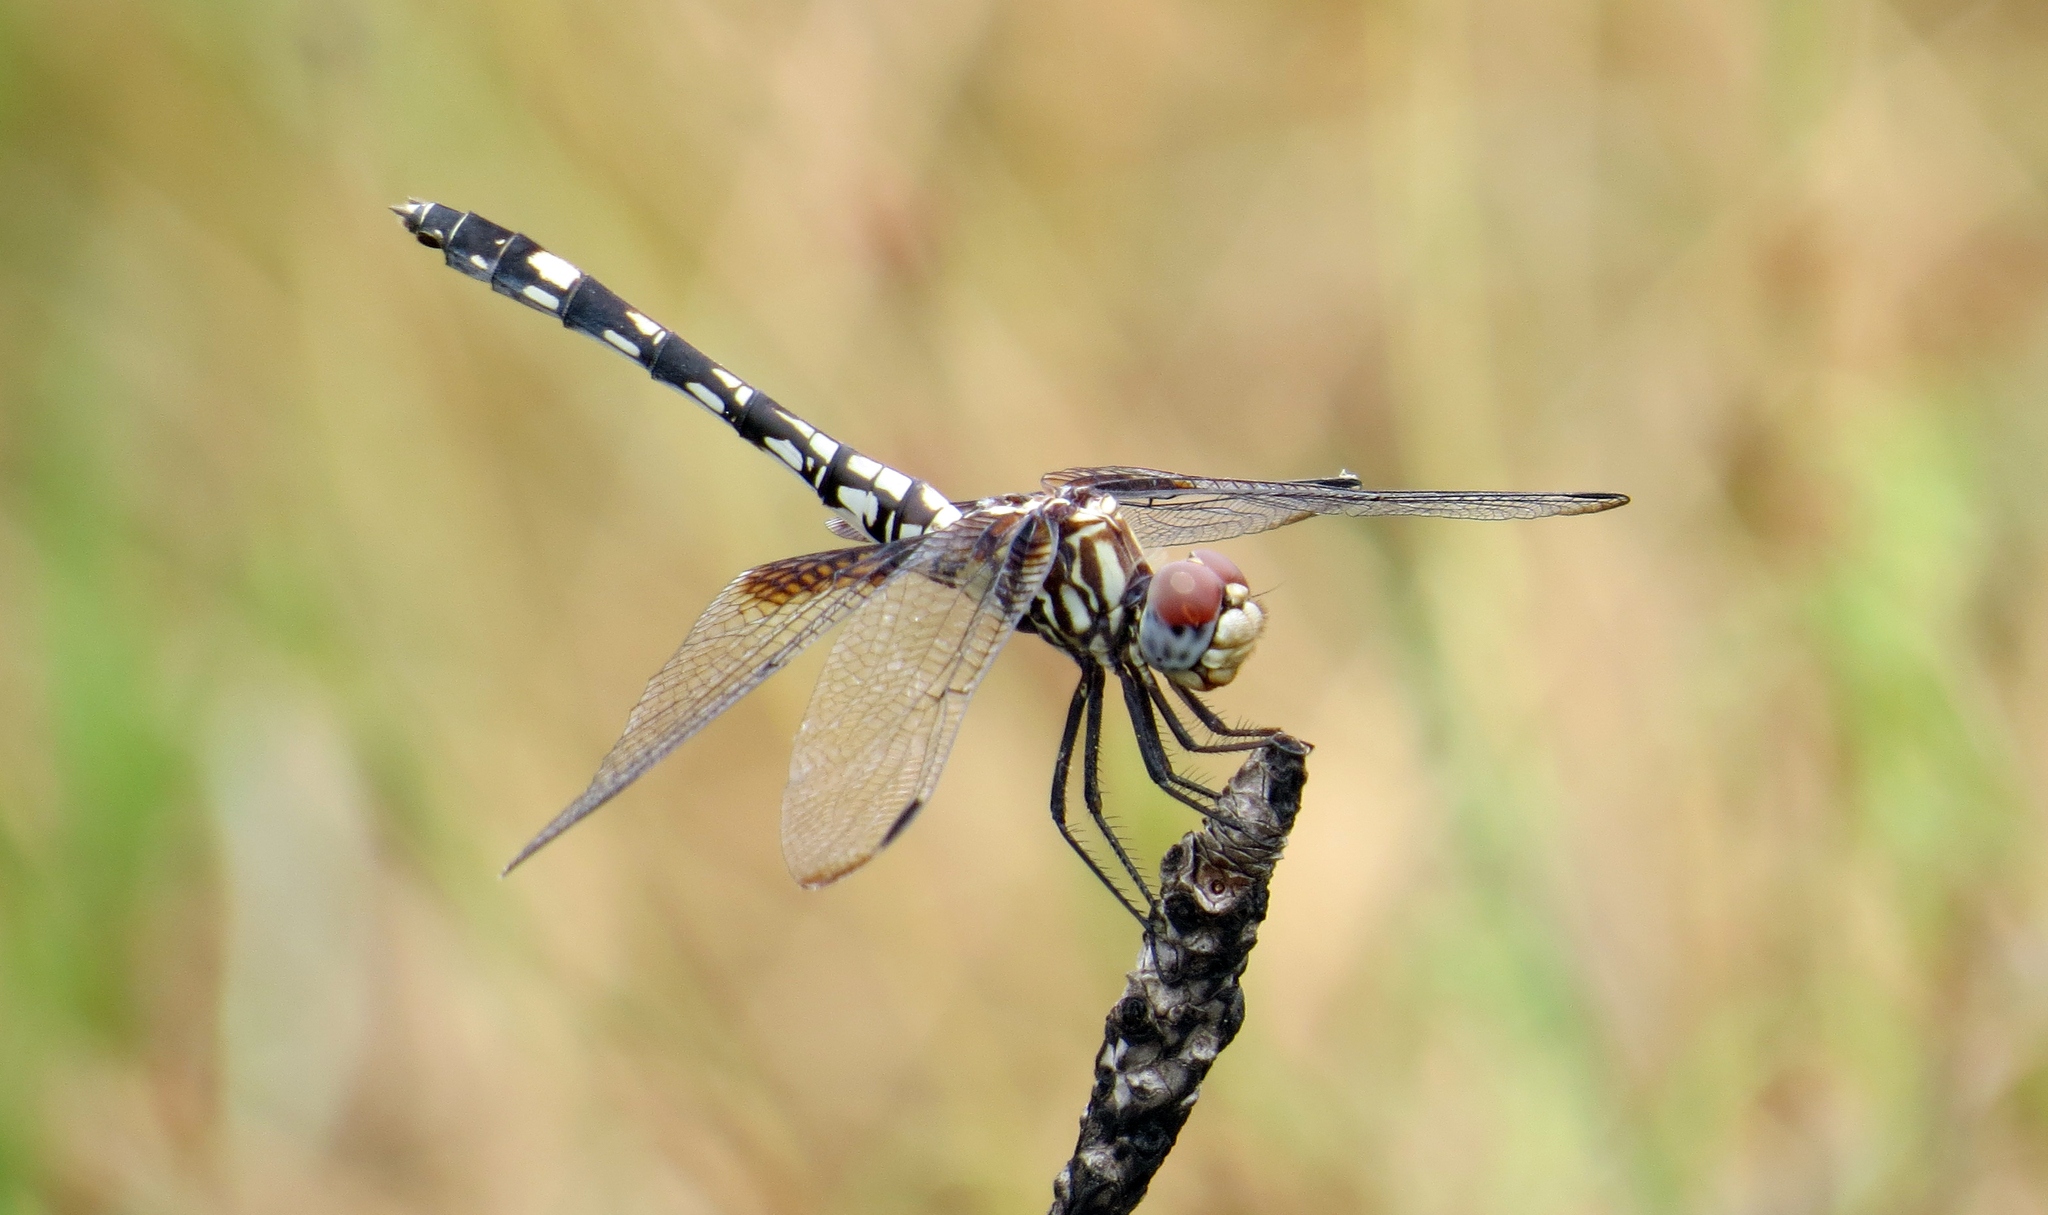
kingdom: Animalia
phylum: Arthropoda
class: Insecta
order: Odonata
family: Libellulidae
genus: Dythemis
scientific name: Dythemis fugax
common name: Checkered setwing
